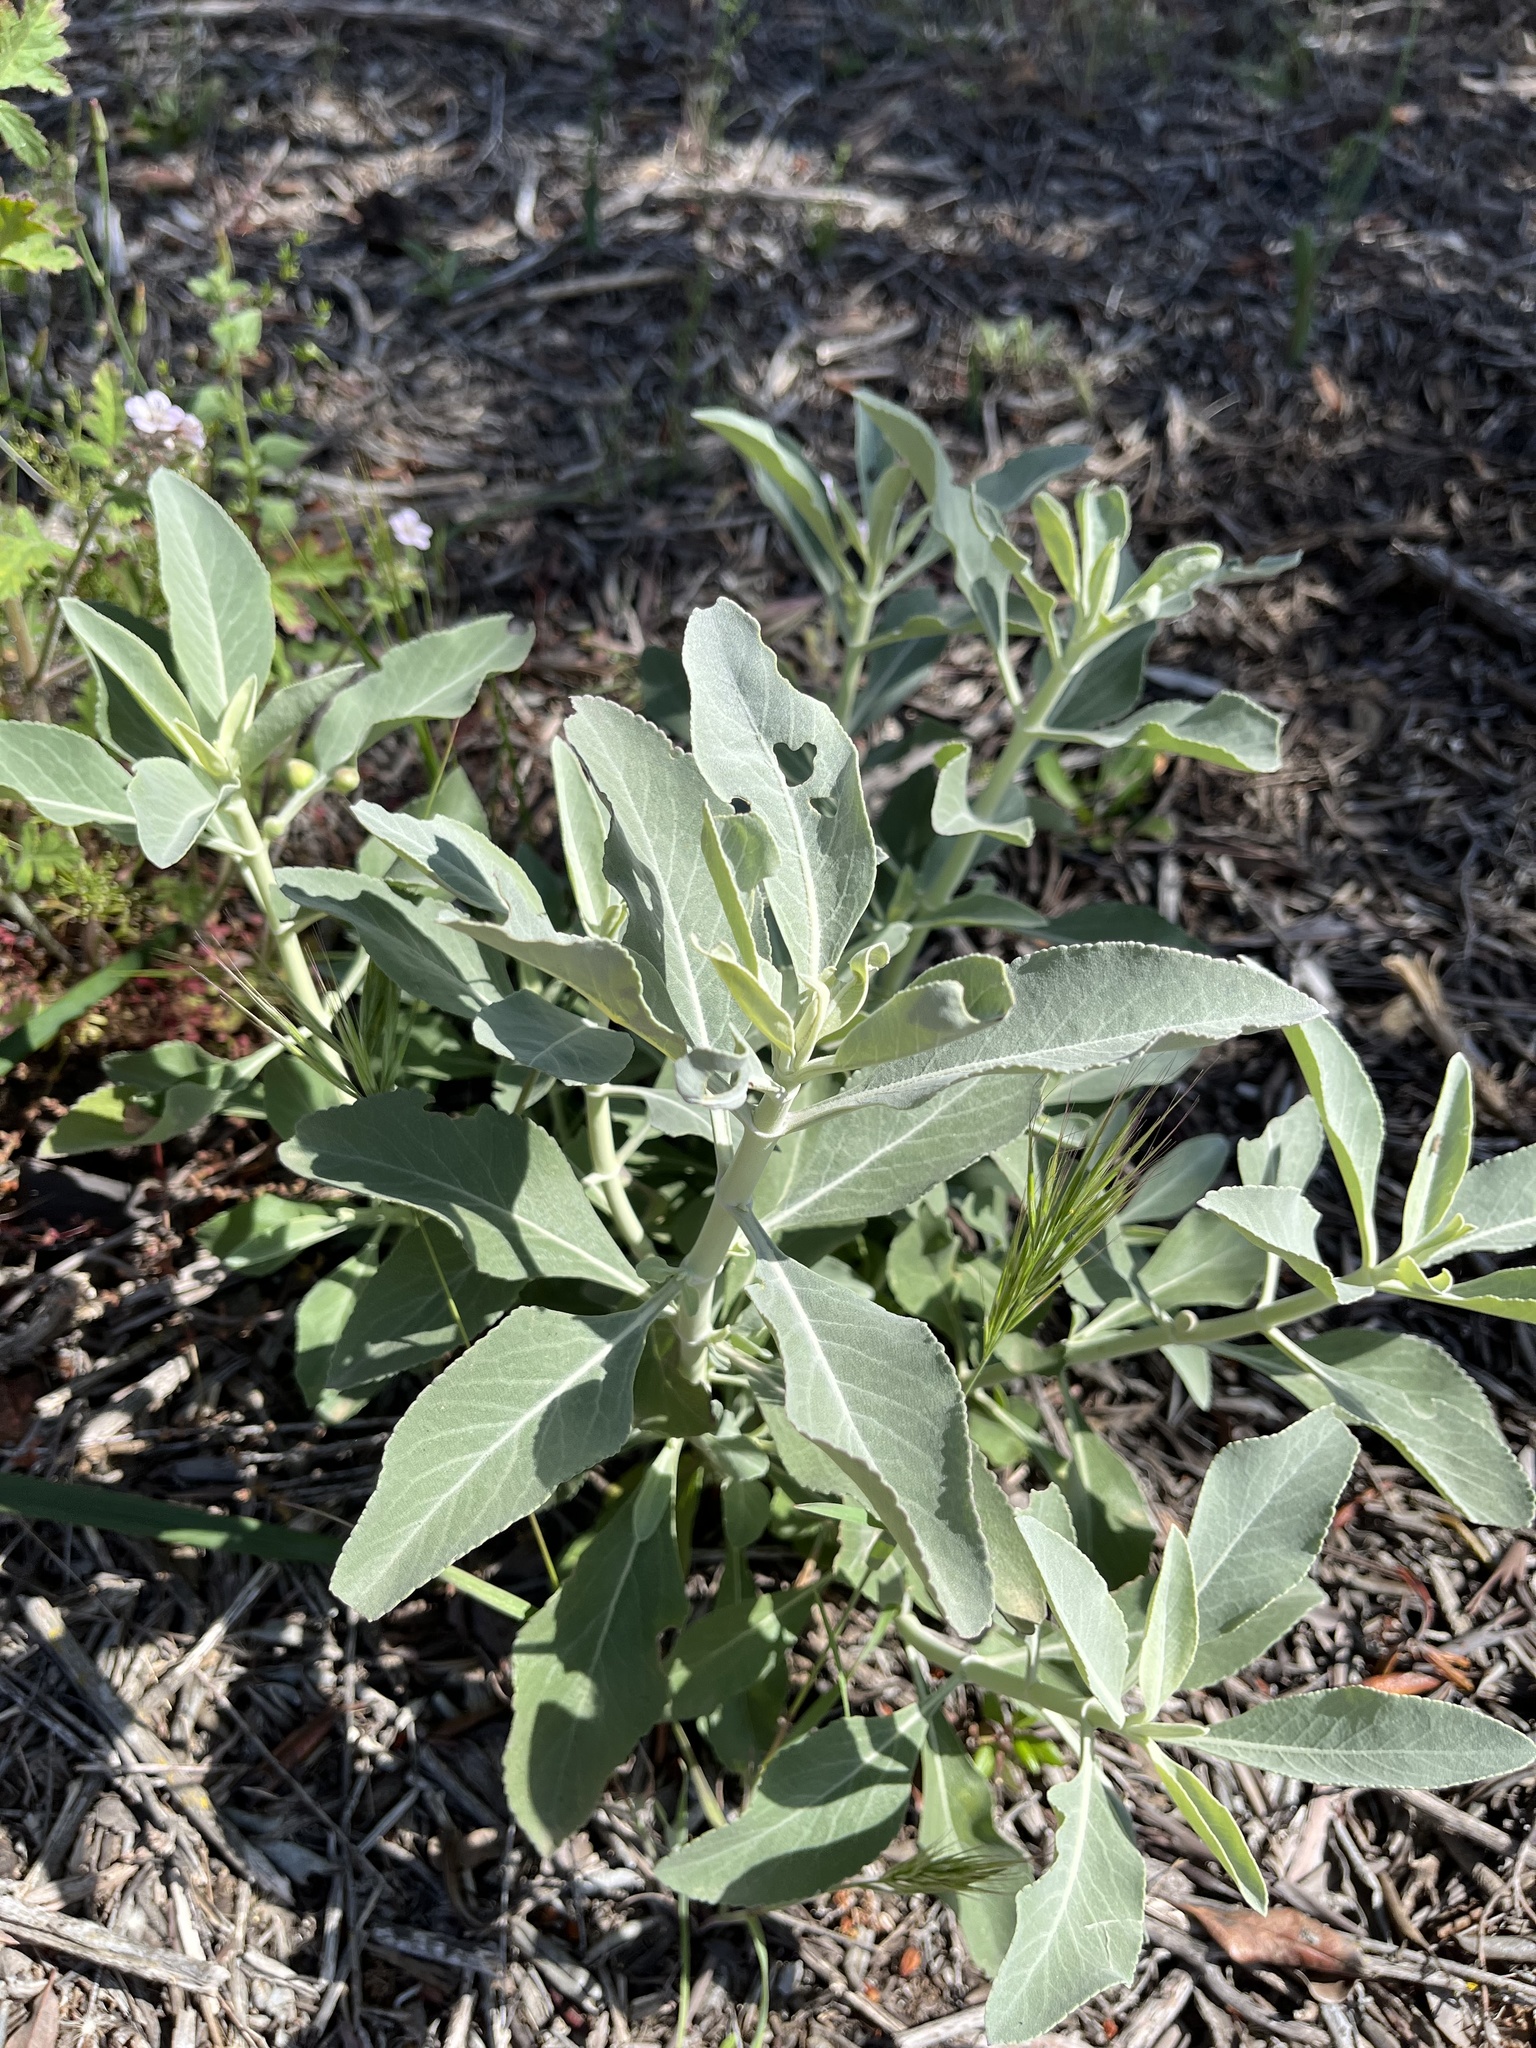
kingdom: Plantae
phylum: Tracheophyta
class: Magnoliopsida
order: Lamiales
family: Lamiaceae
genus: Salvia
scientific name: Salvia apiana
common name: White sage
